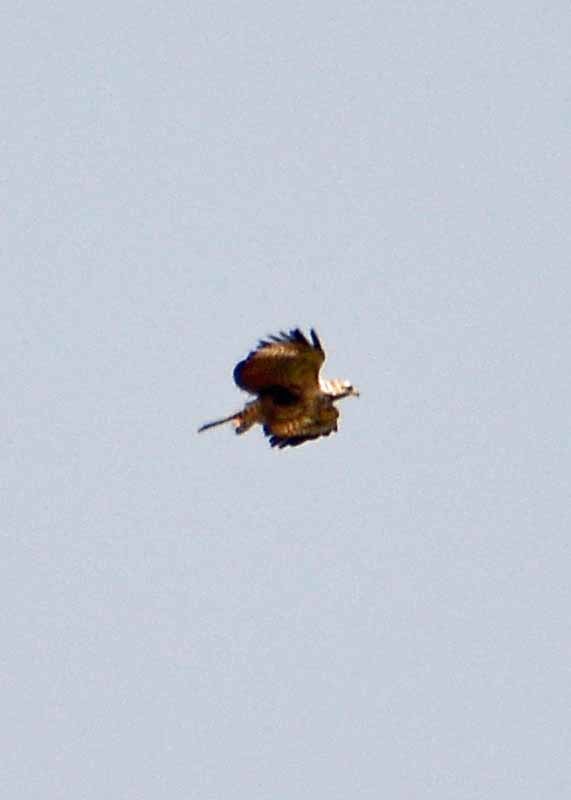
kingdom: Animalia
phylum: Chordata
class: Aves
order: Accipitriformes
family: Accipitridae
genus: Buteogallus
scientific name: Buteogallus anthracinus
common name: Common black hawk
